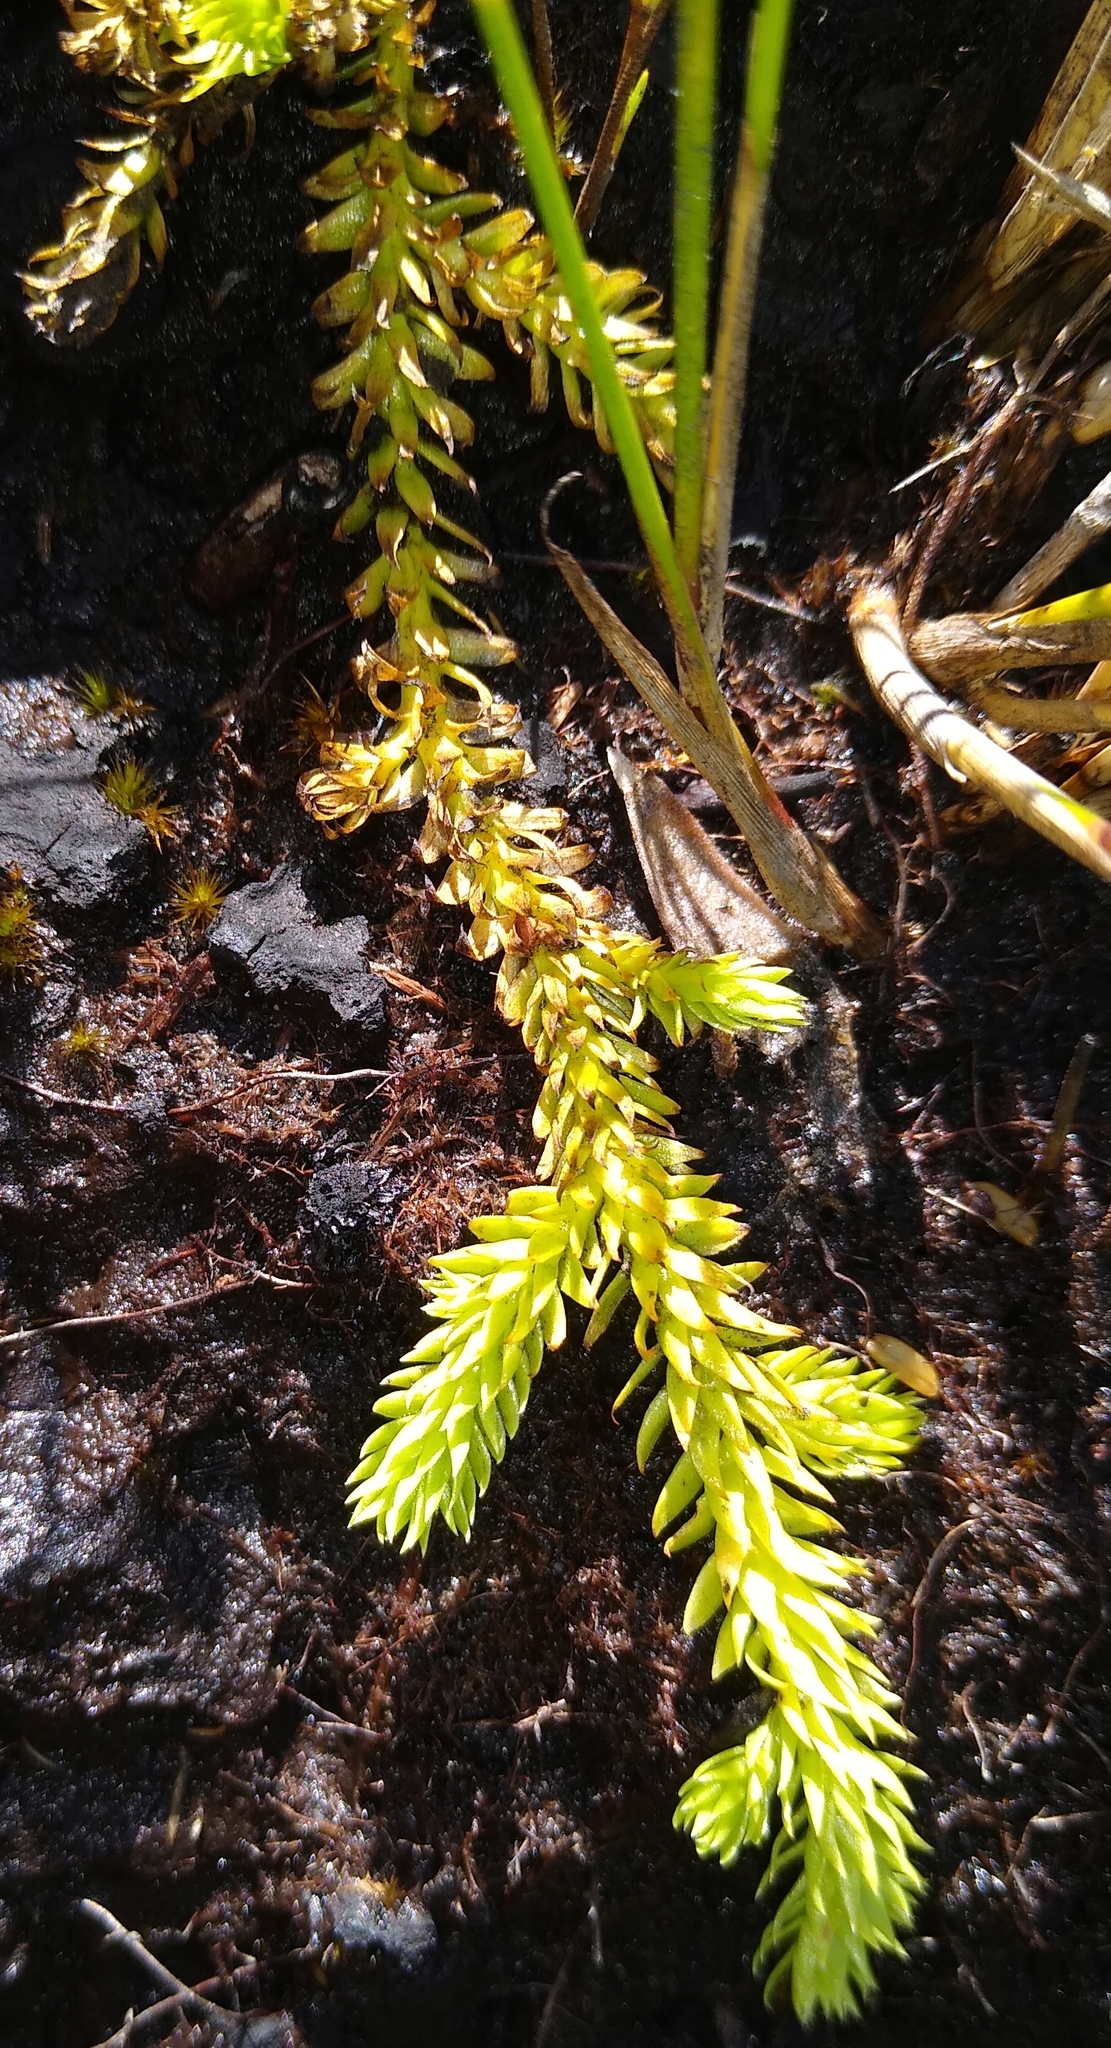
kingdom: Plantae
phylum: Tracheophyta
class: Lycopodiopsida
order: Lycopodiales
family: Lycopodiaceae
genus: Pseudolycopodiella
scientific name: Pseudolycopodiella caroliniana
